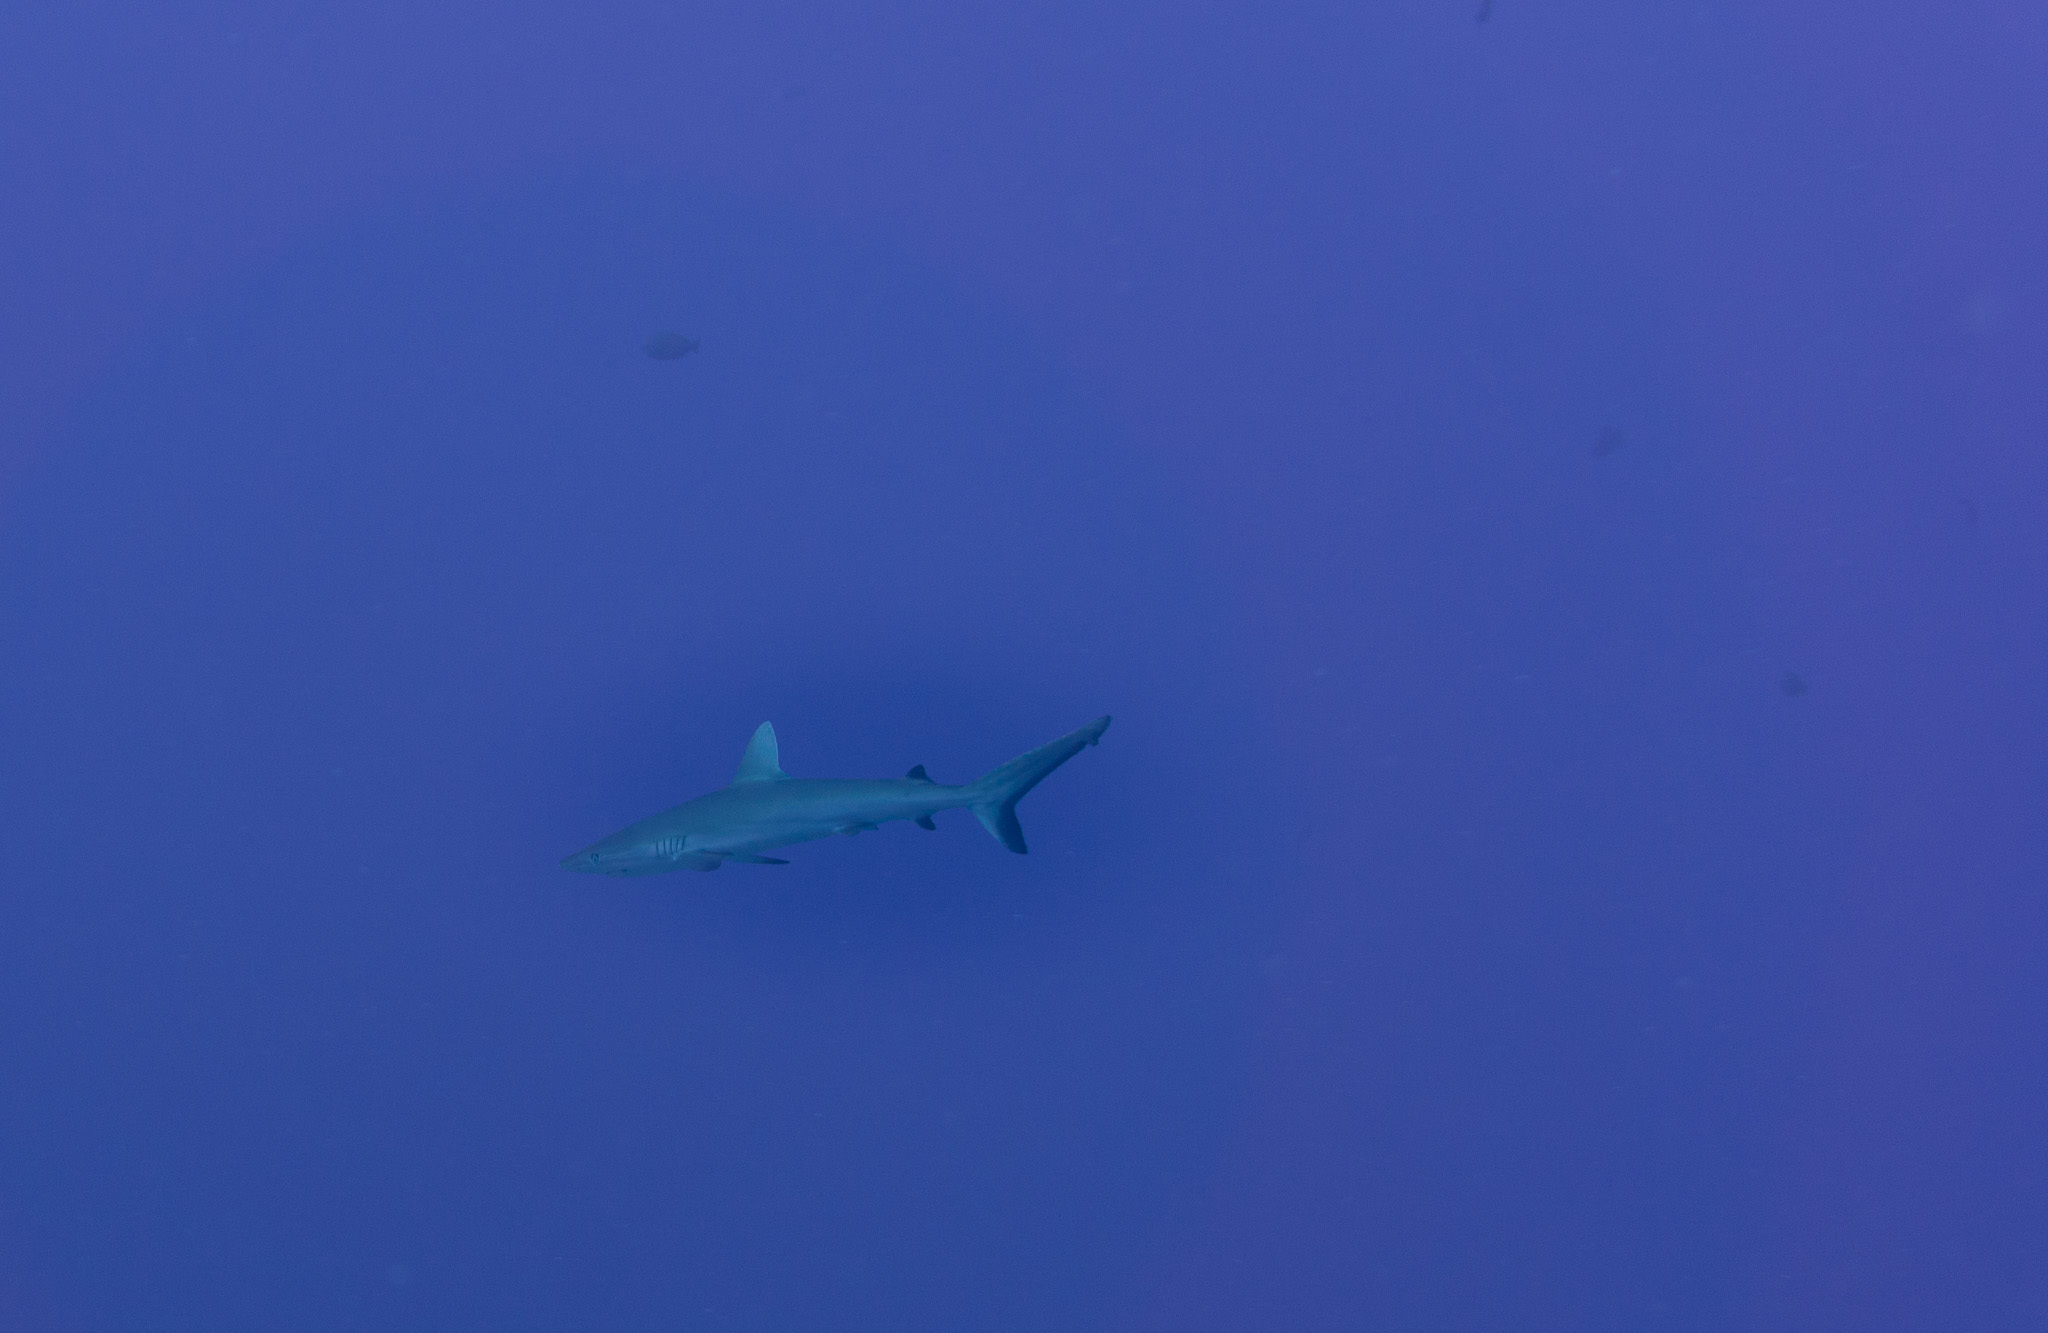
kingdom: Animalia
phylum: Chordata
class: Elasmobranchii
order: Carcharhiniformes
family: Carcharhinidae
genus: Carcharhinus
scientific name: Carcharhinus amblyrhynchos
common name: Grey reef shark
